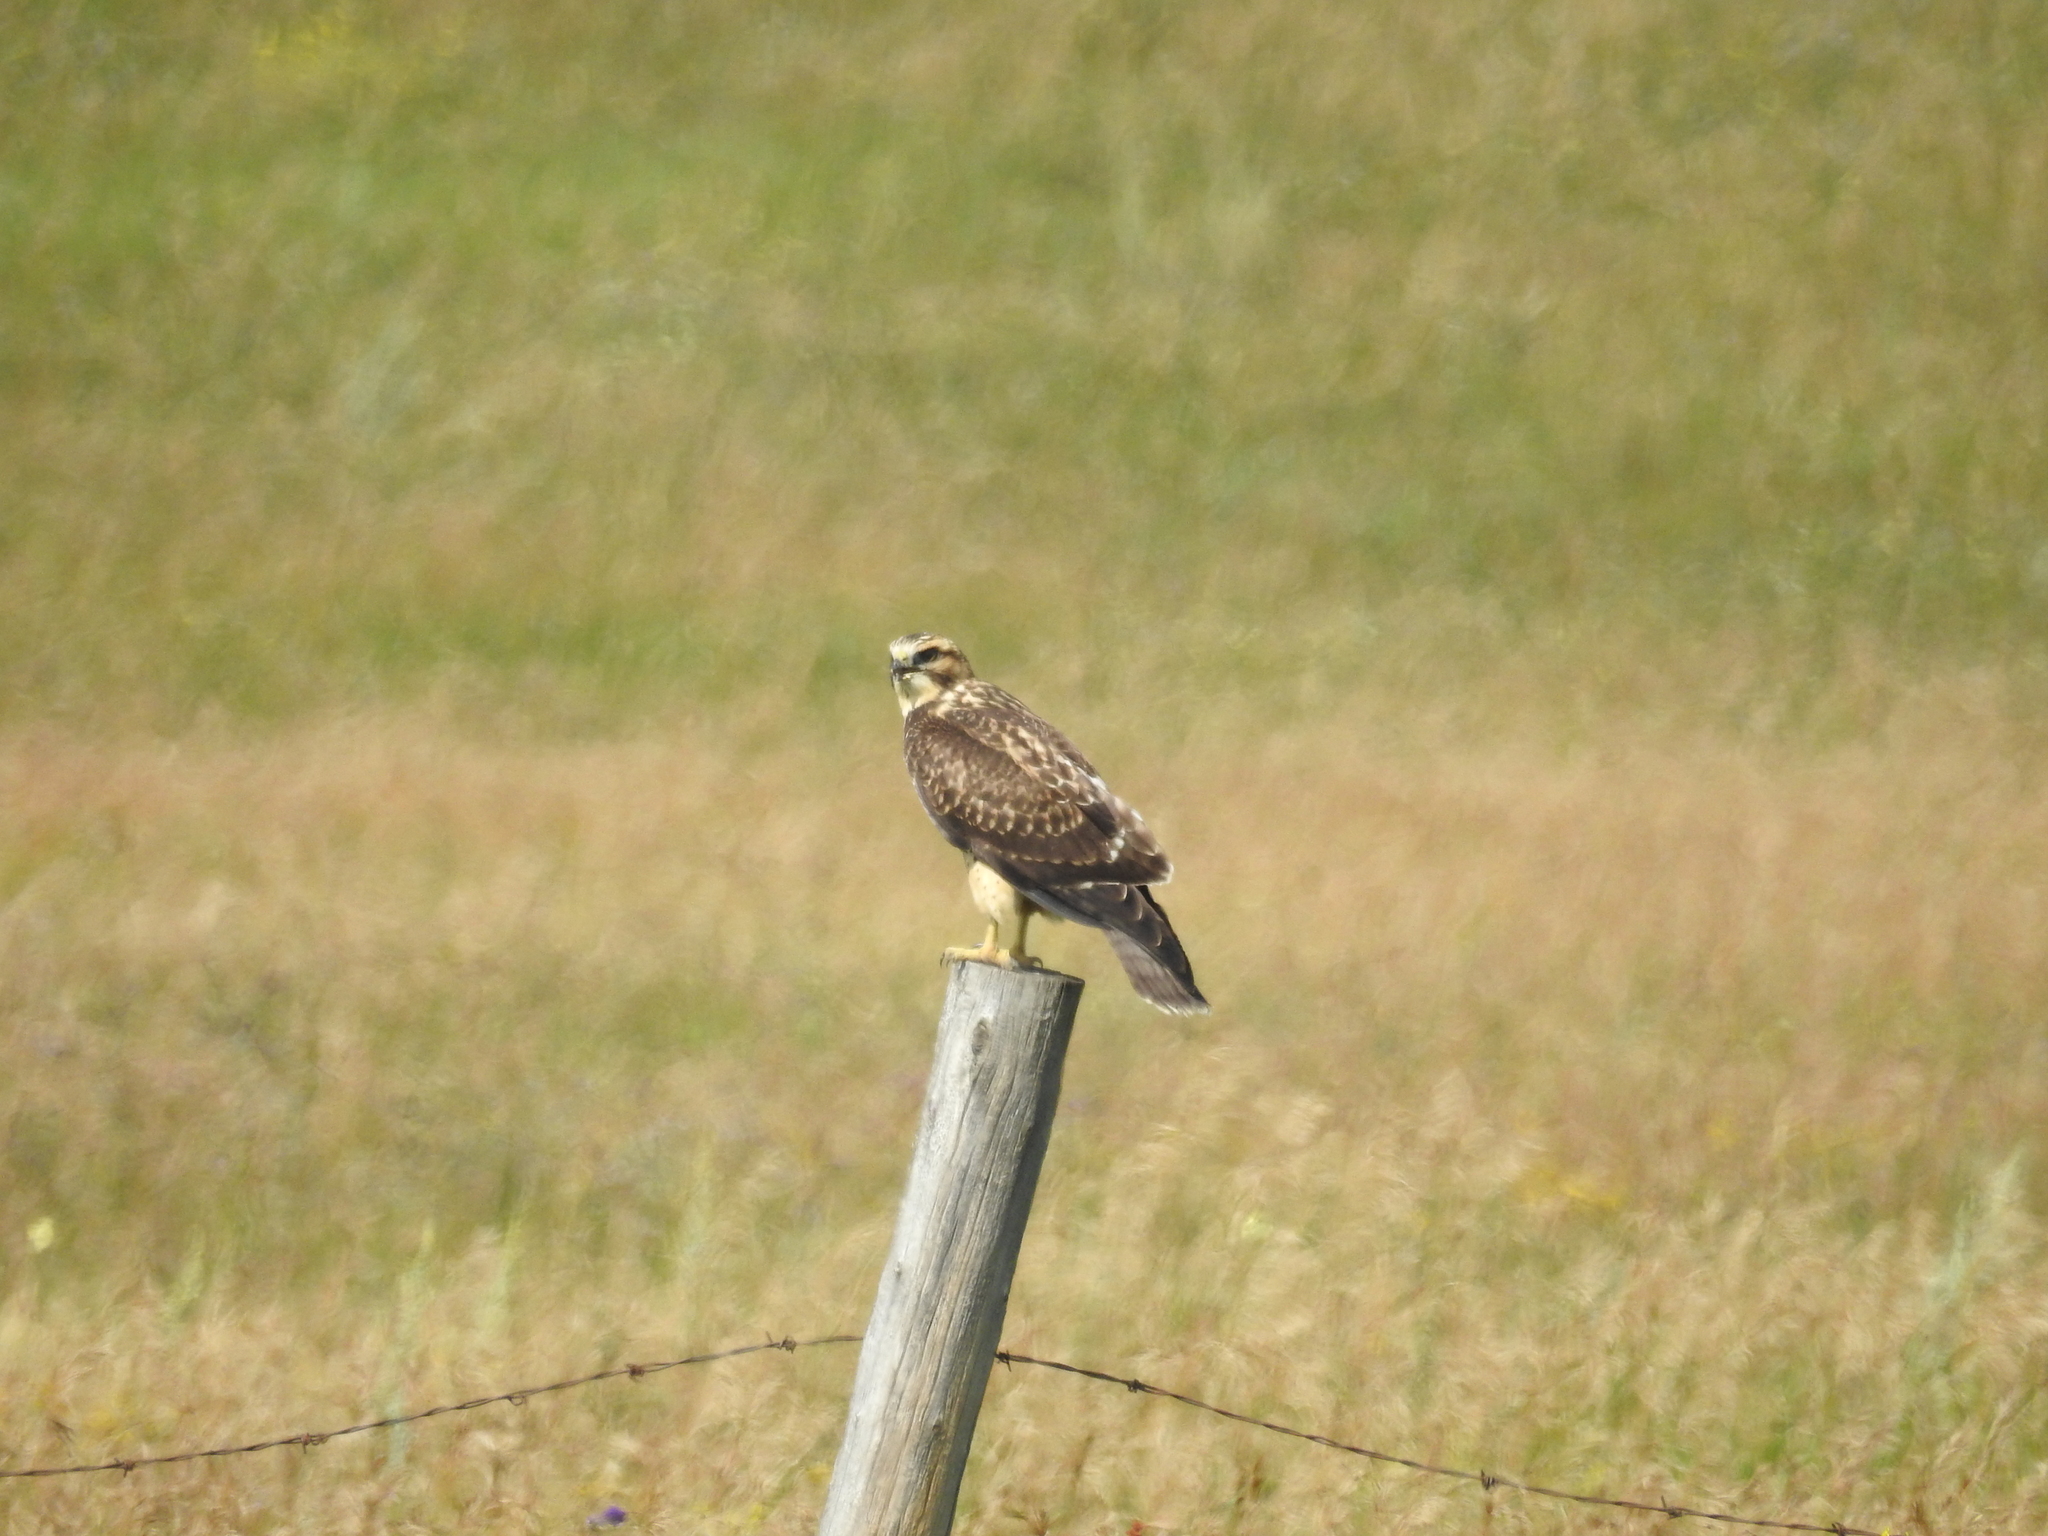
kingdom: Animalia
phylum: Chordata
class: Aves
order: Accipitriformes
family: Accipitridae
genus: Buteo
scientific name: Buteo swainsoni
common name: Swainson's hawk
